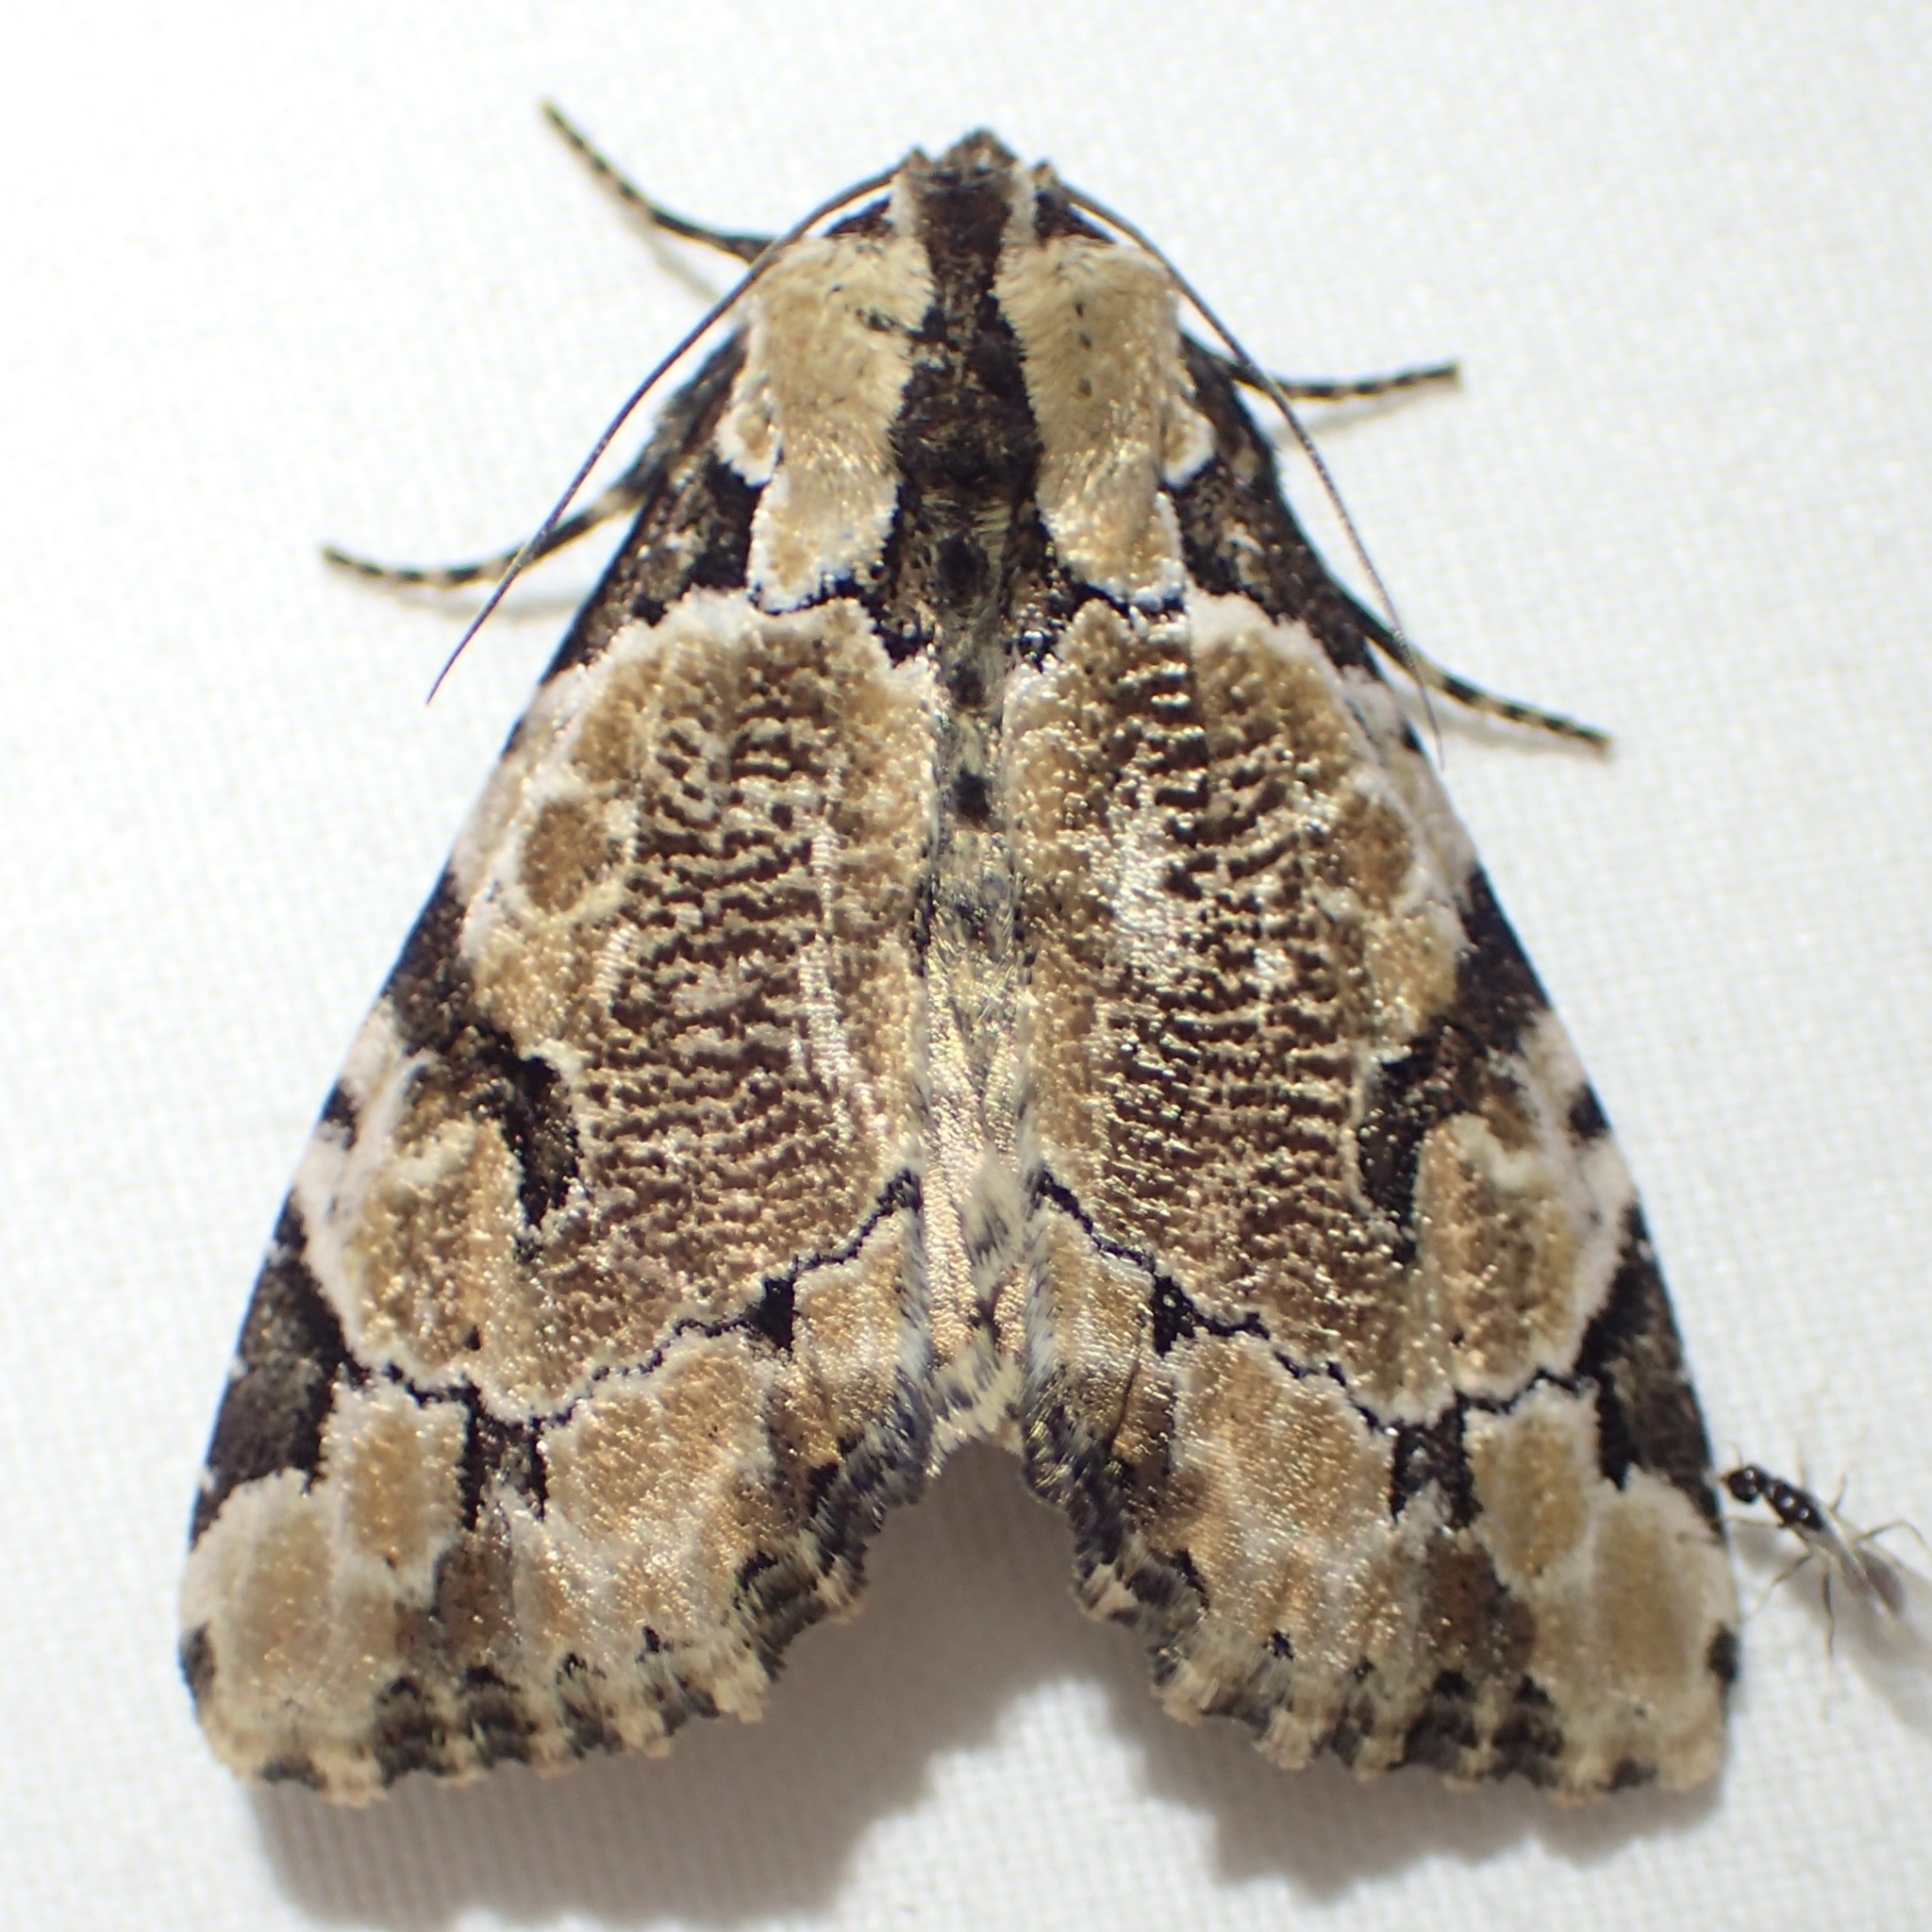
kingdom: Animalia
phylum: Arthropoda
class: Insecta
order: Lepidoptera
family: Noctuidae
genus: Stibaera
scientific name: Stibaera thyatiroides
